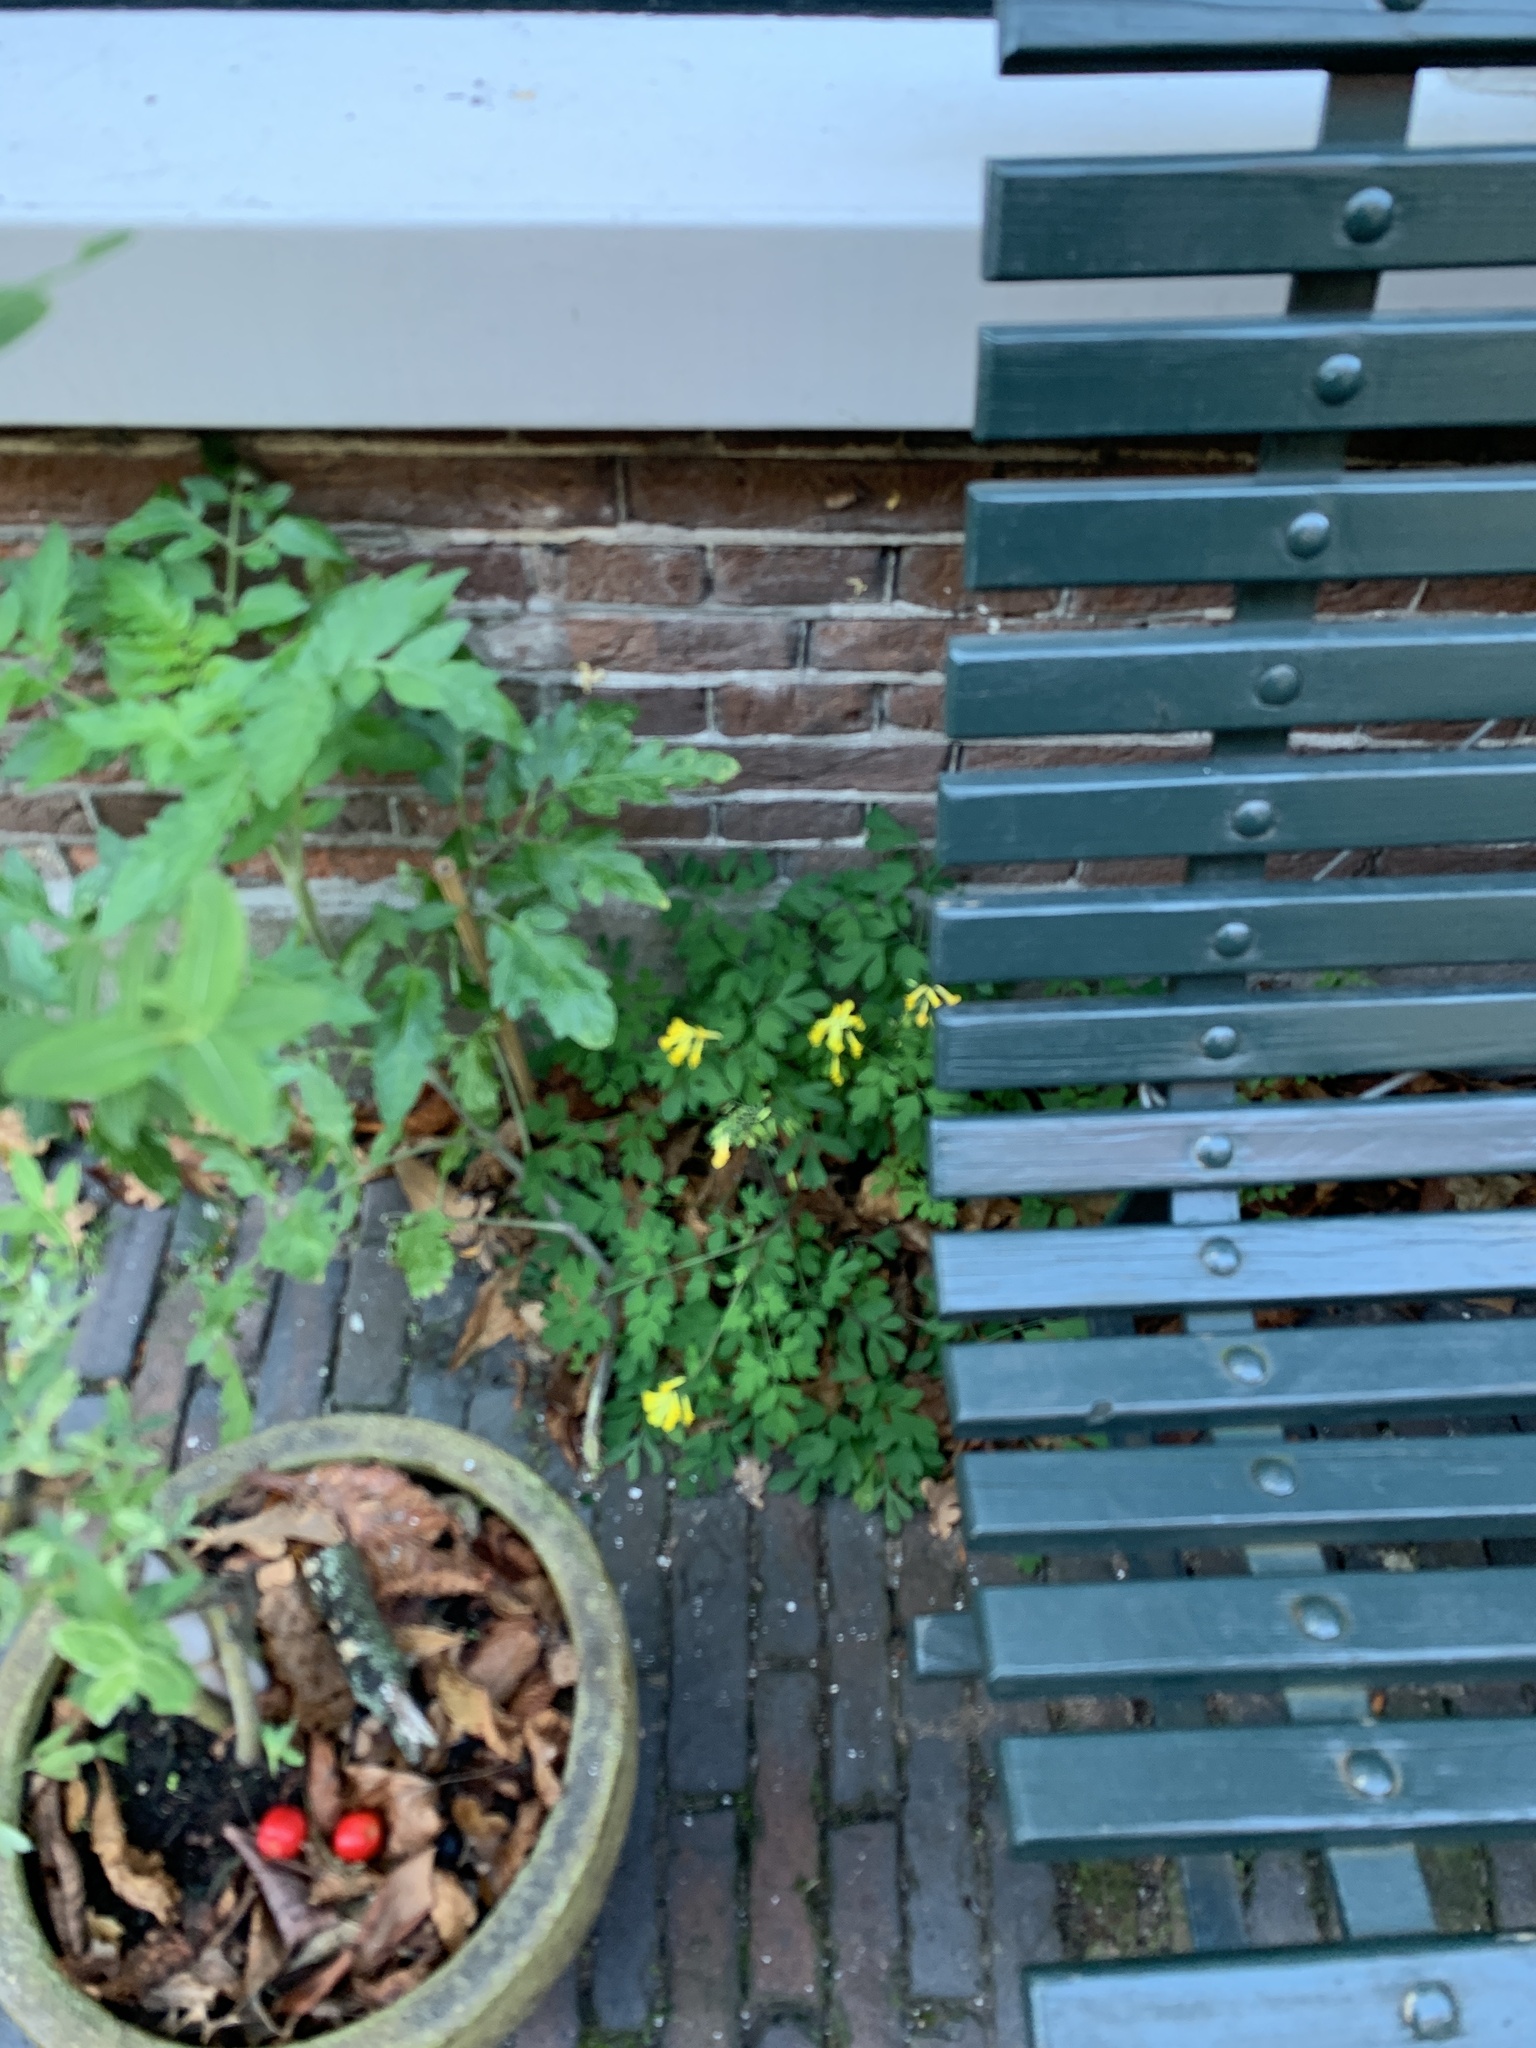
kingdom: Plantae
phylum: Tracheophyta
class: Magnoliopsida
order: Ranunculales
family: Papaveraceae
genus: Pseudofumaria
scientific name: Pseudofumaria lutea
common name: Yellow corydalis
